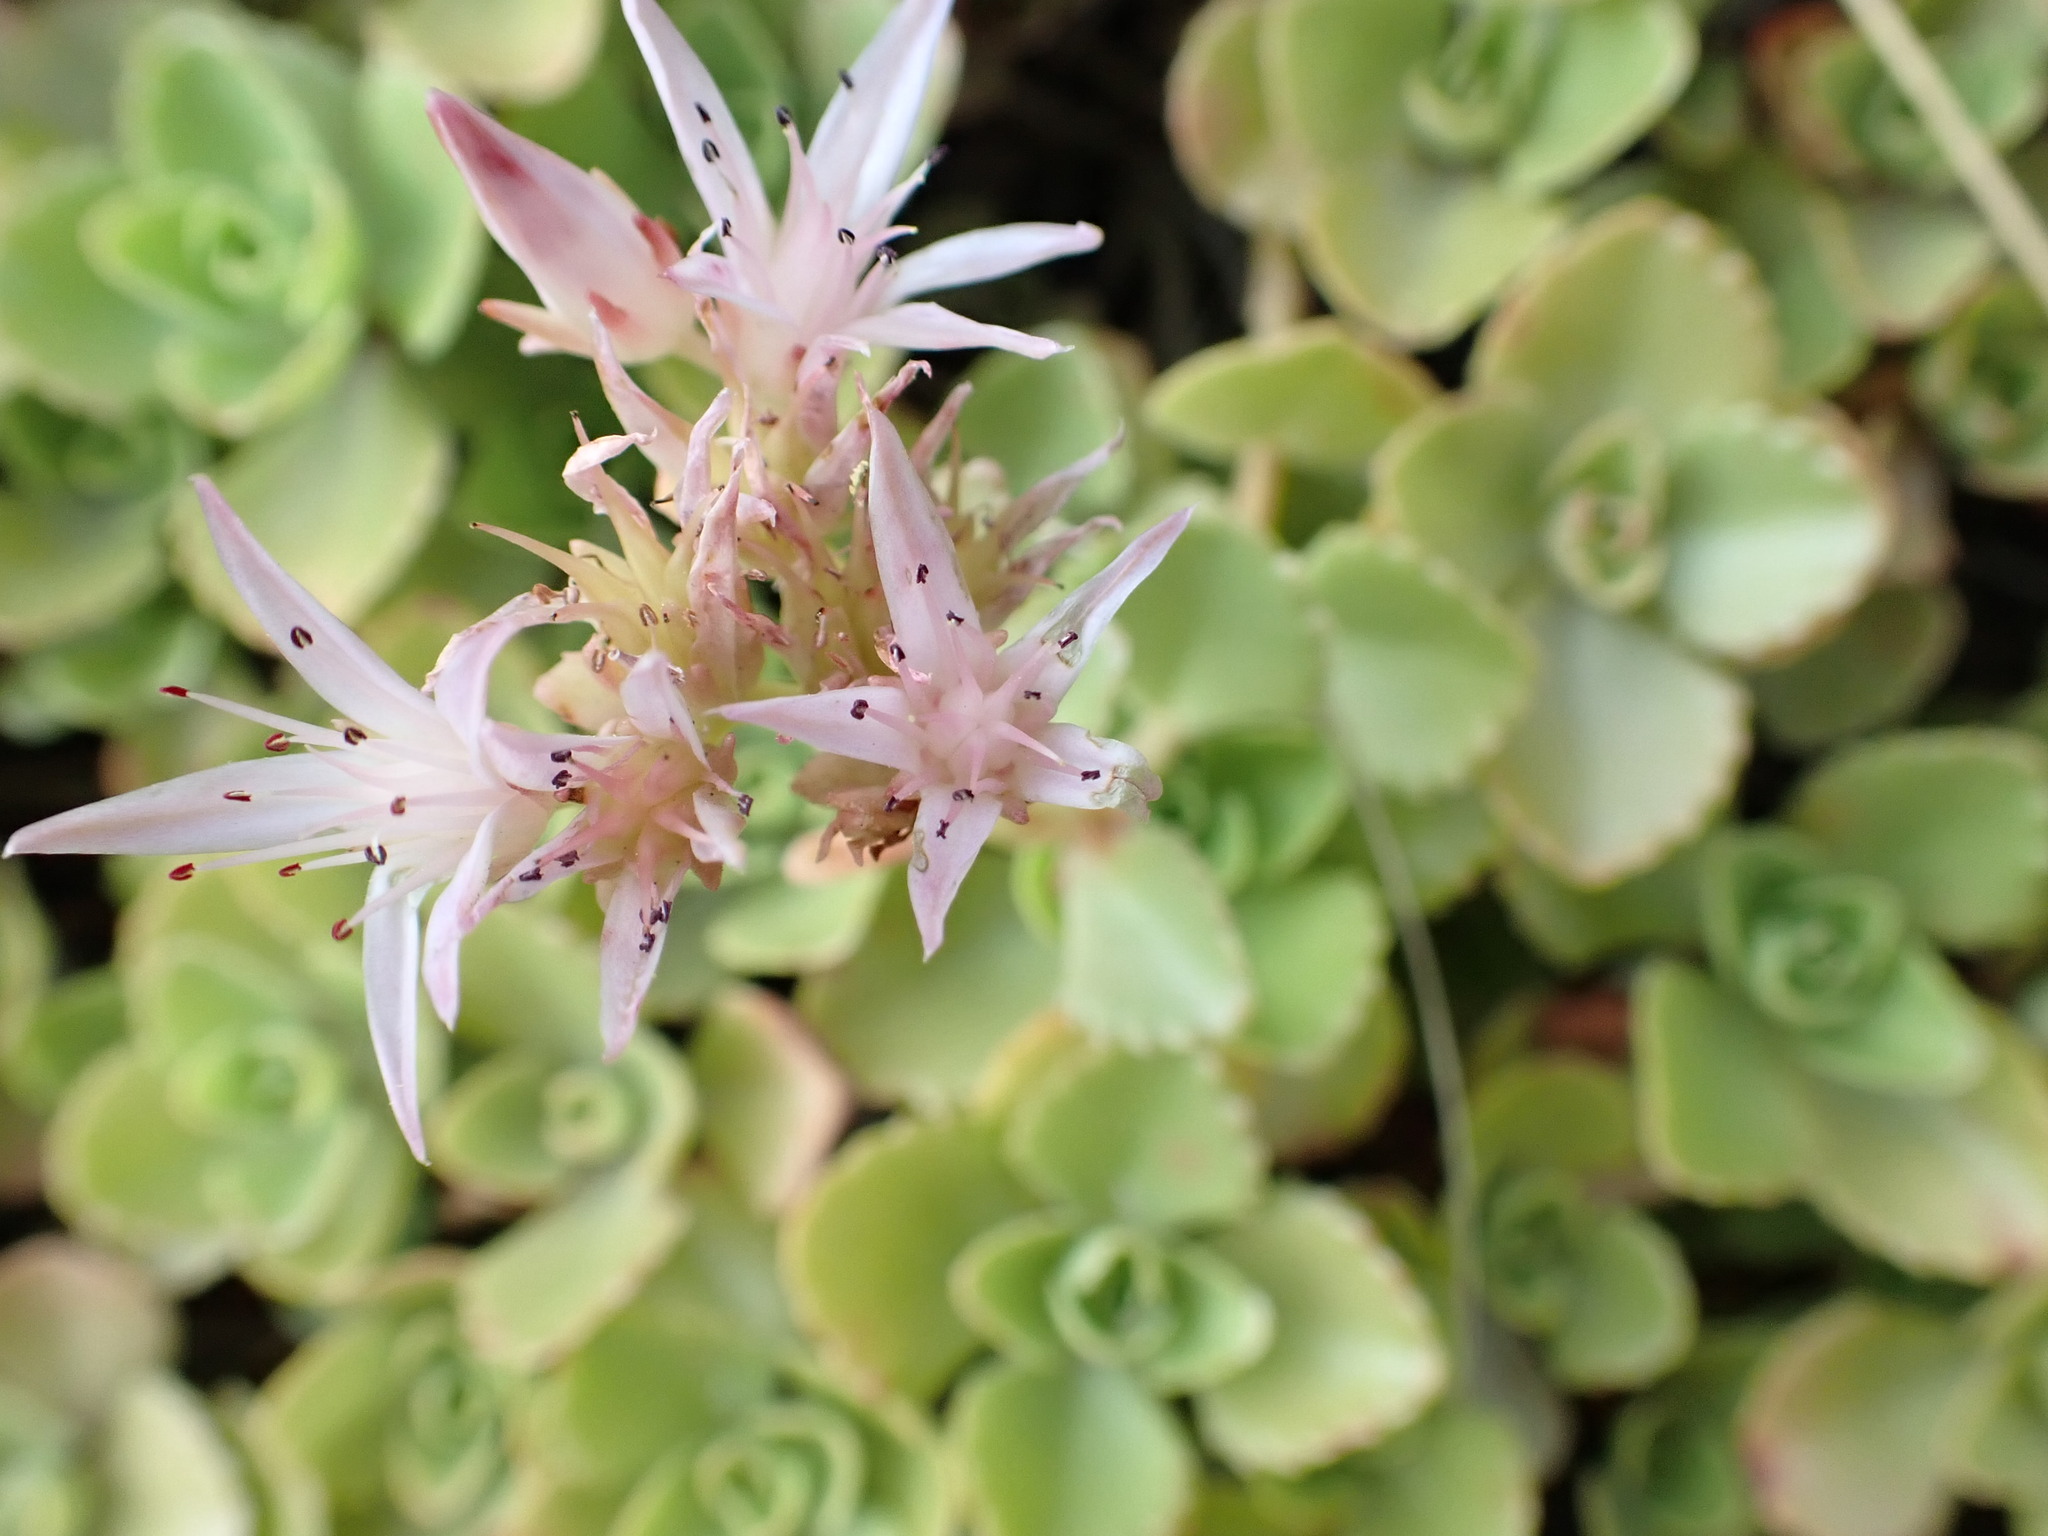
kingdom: Plantae
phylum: Tracheophyta
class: Magnoliopsida
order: Saxifragales
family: Crassulaceae
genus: Phedimus
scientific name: Phedimus spurius
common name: Caucasian stonecrop
